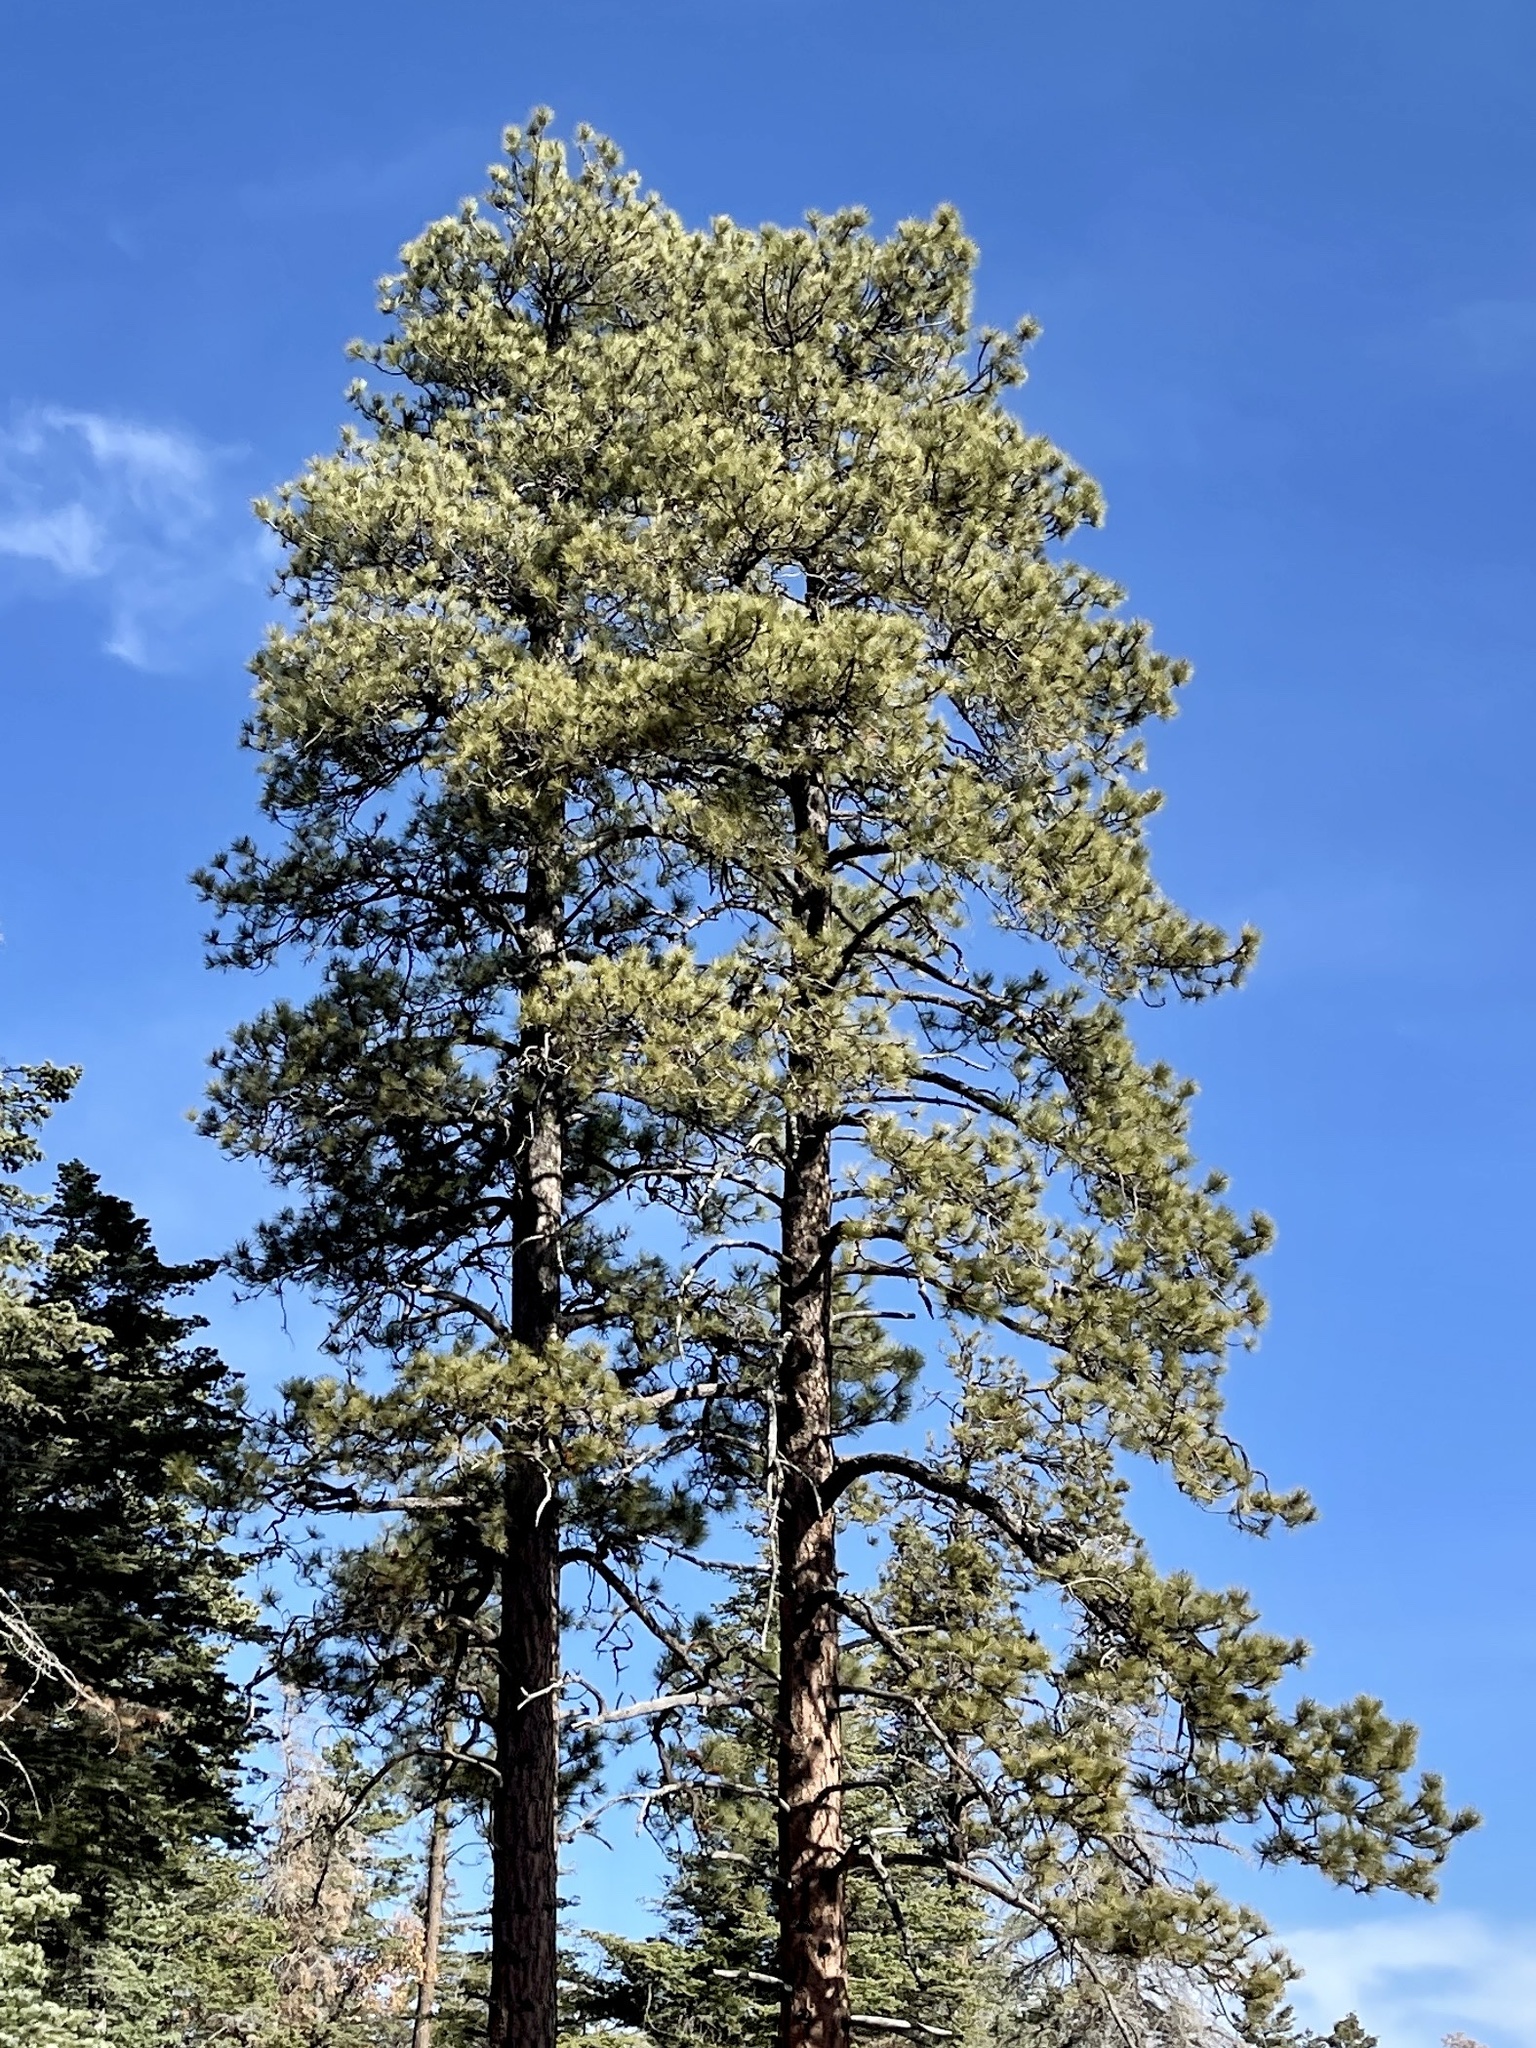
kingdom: Plantae
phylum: Tracheophyta
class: Pinopsida
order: Pinales
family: Pinaceae
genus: Pinus
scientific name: Pinus ponderosa
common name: Western yellow-pine
